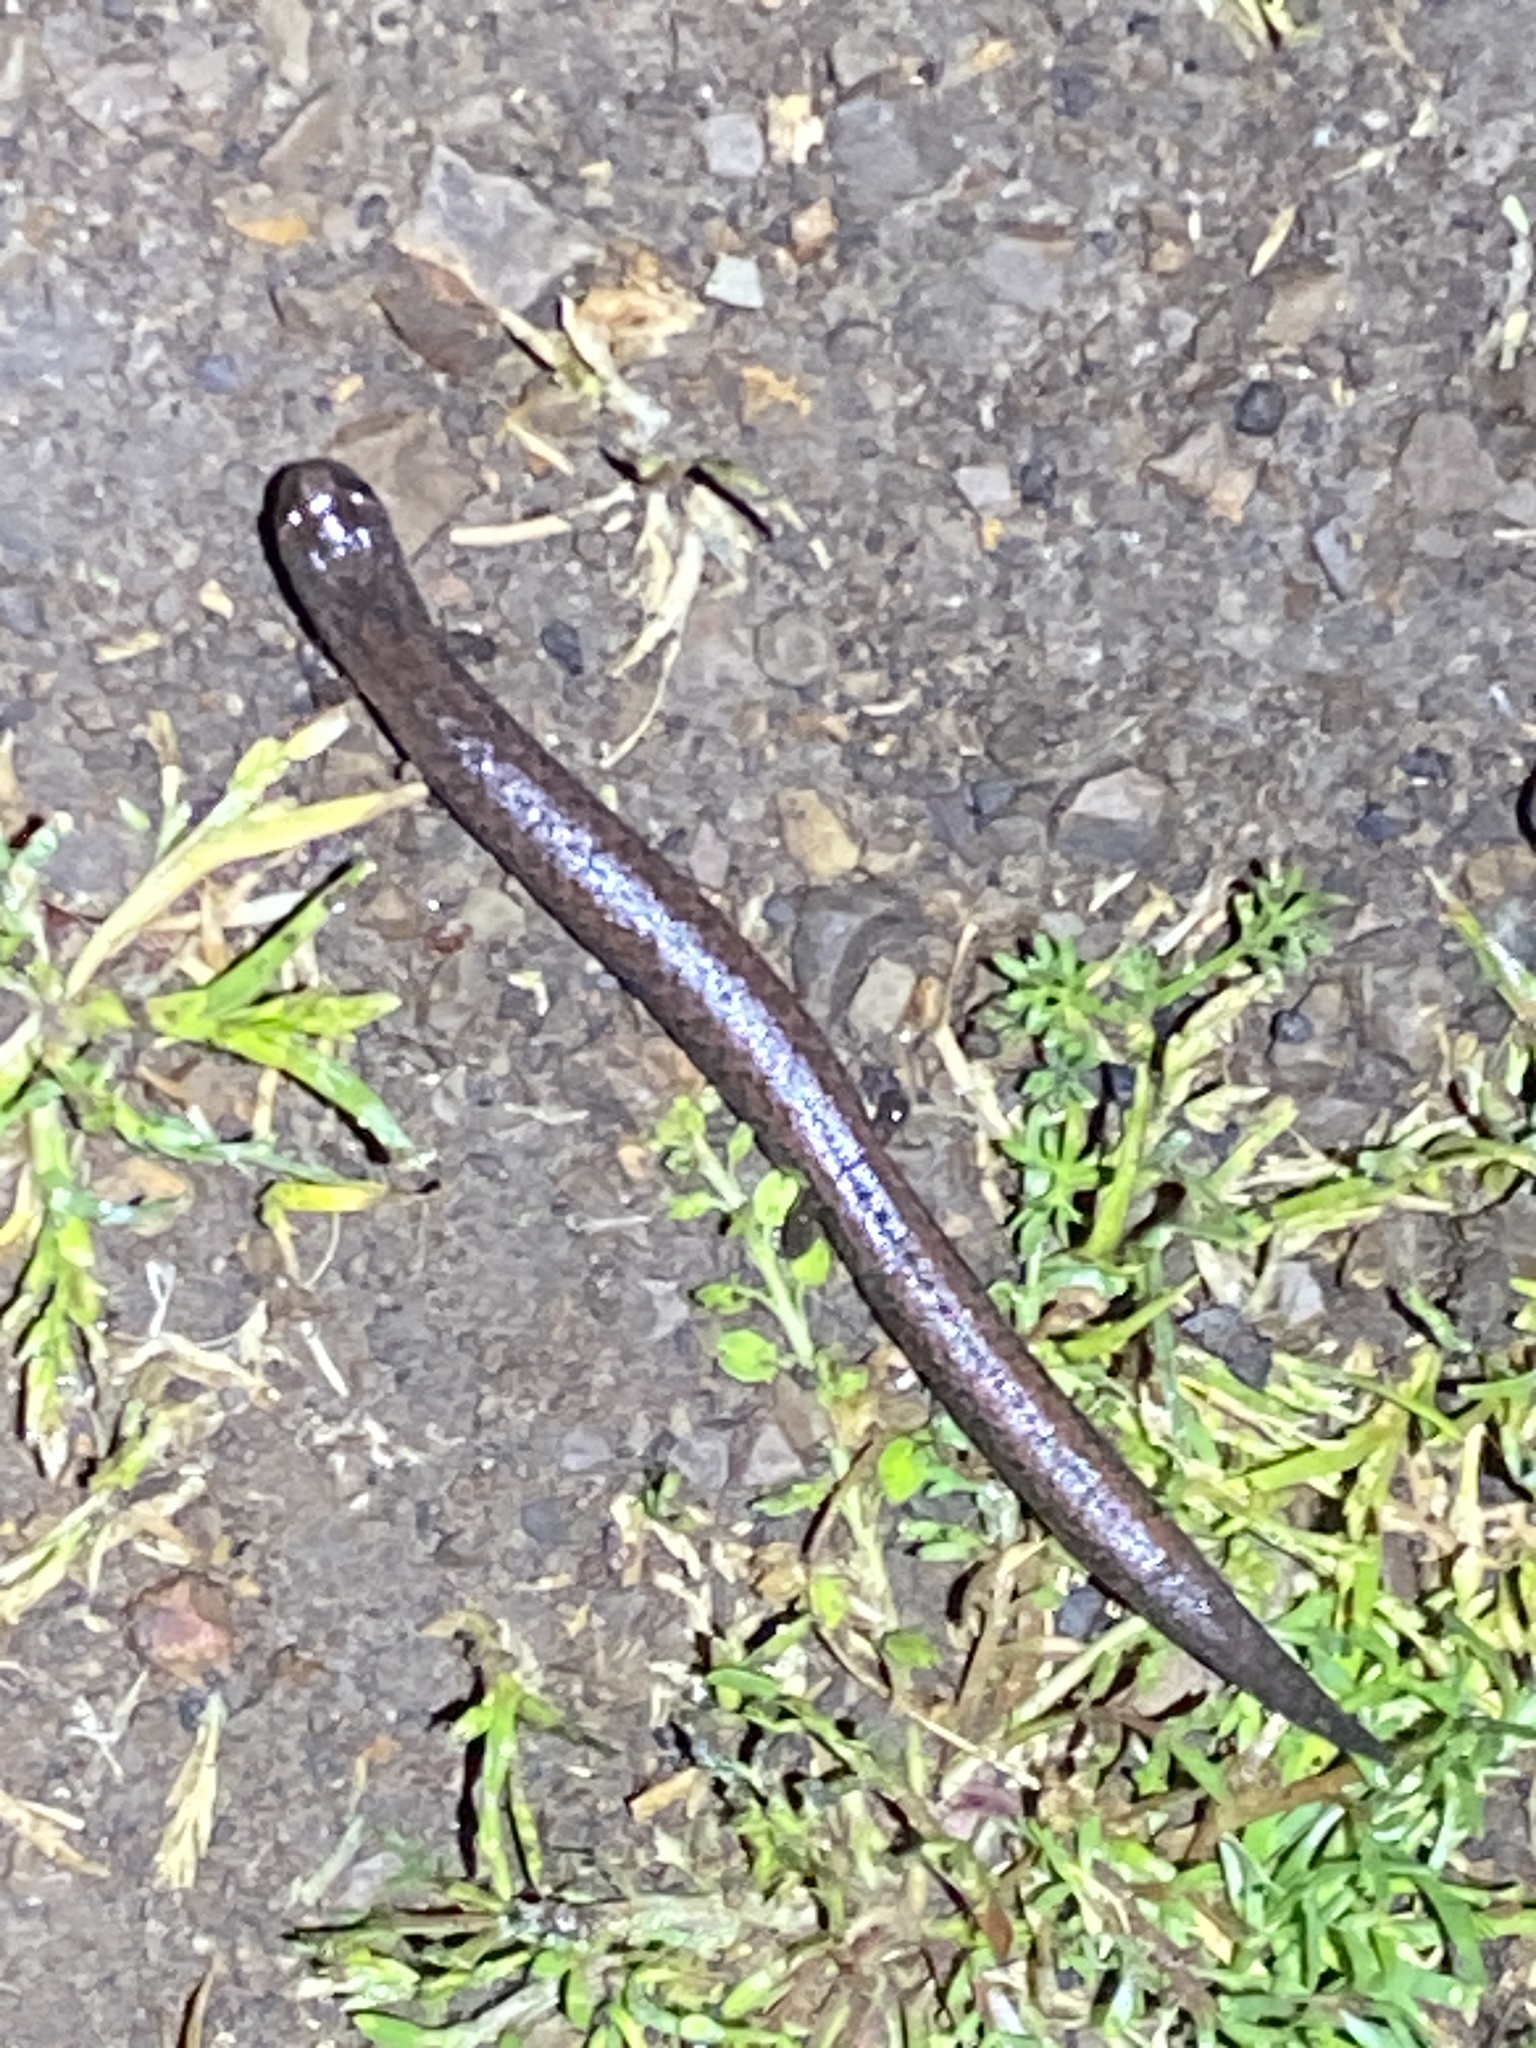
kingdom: Animalia
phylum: Chordata
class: Amphibia
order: Caudata
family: Plethodontidae
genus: Batrachoseps
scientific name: Batrachoseps attenuatus
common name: California slender salamander
